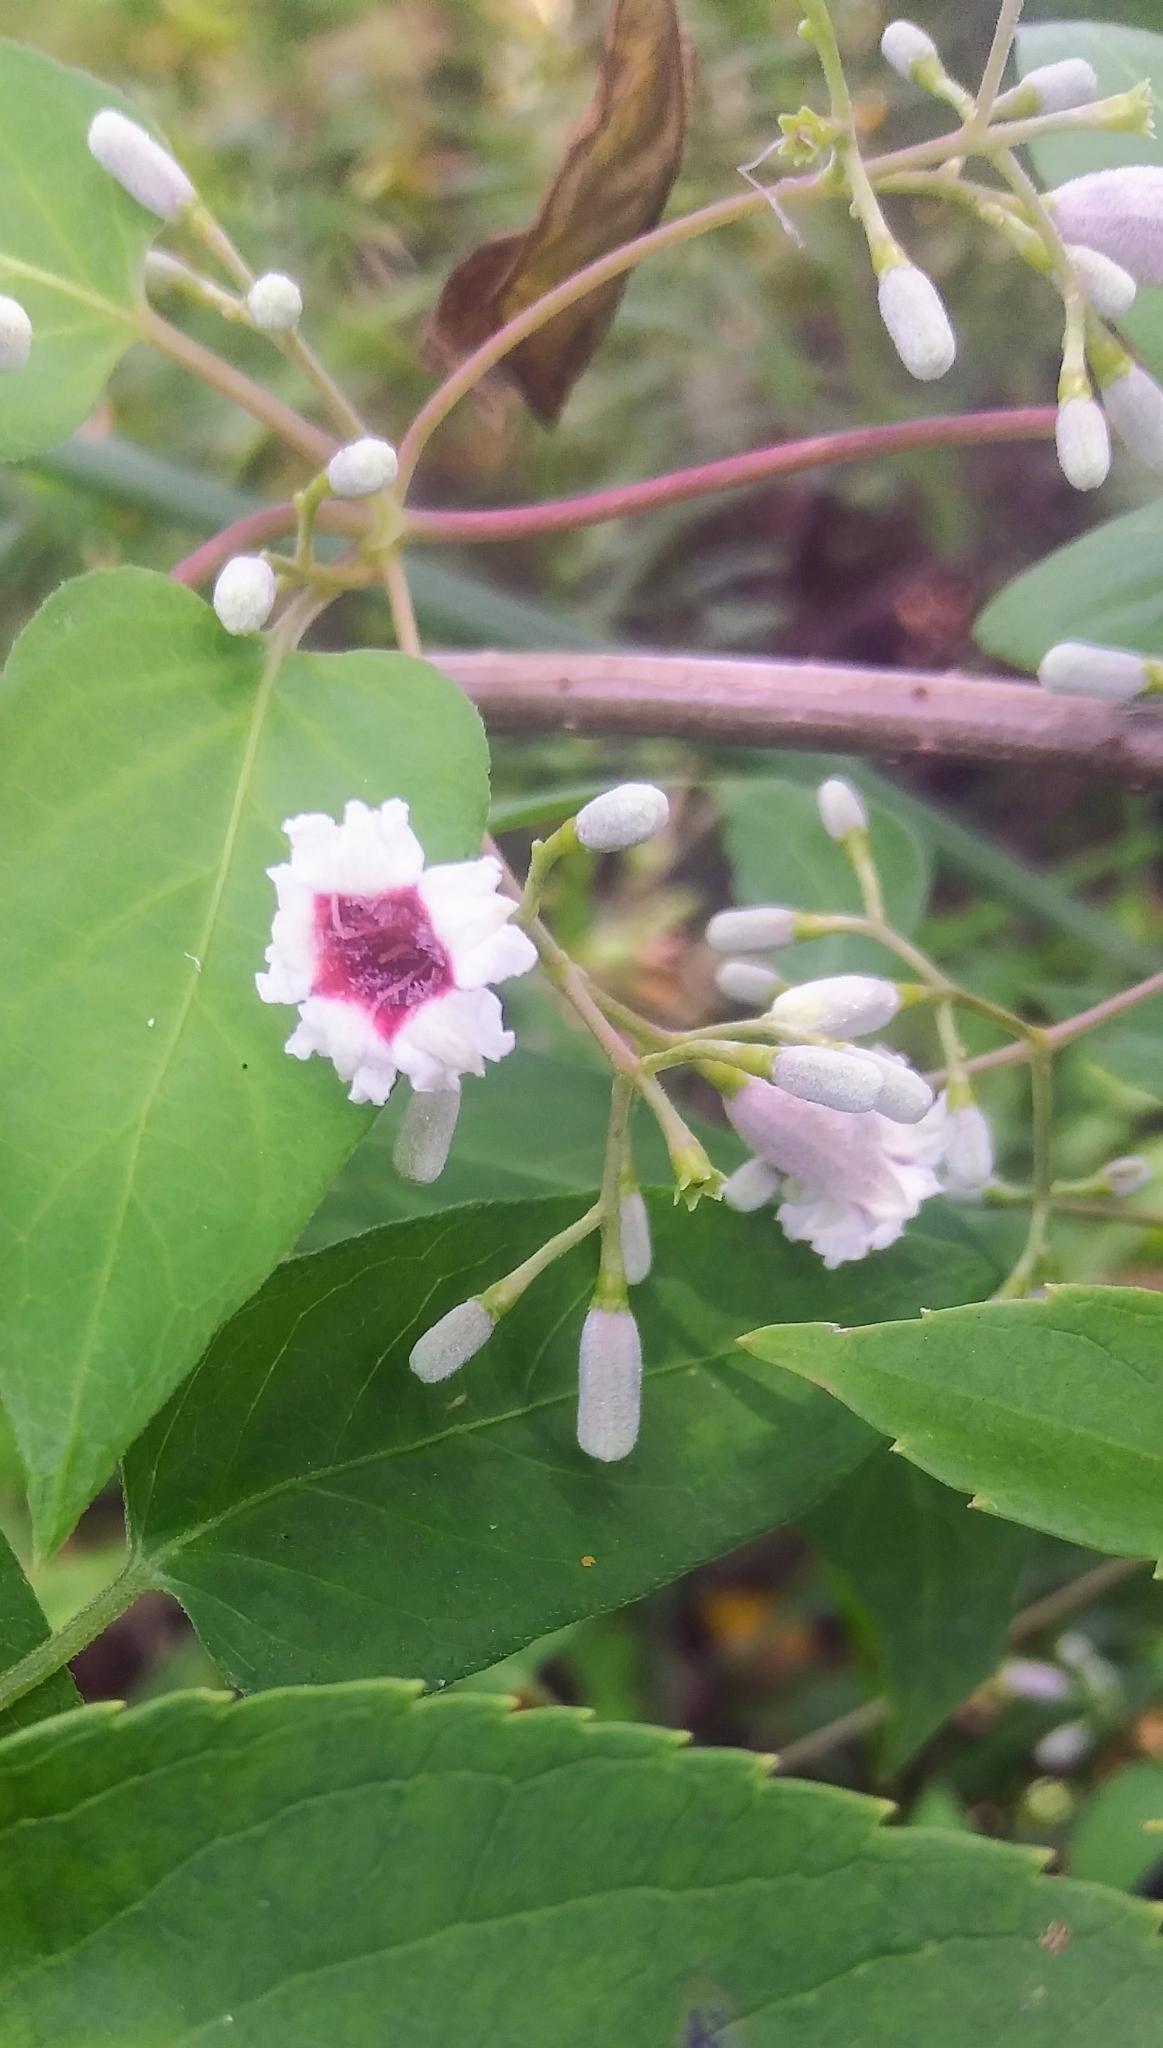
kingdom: Plantae
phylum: Tracheophyta
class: Magnoliopsida
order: Gentianales
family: Rubiaceae
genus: Paederia
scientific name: Paederia foetida
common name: Stinkvine
